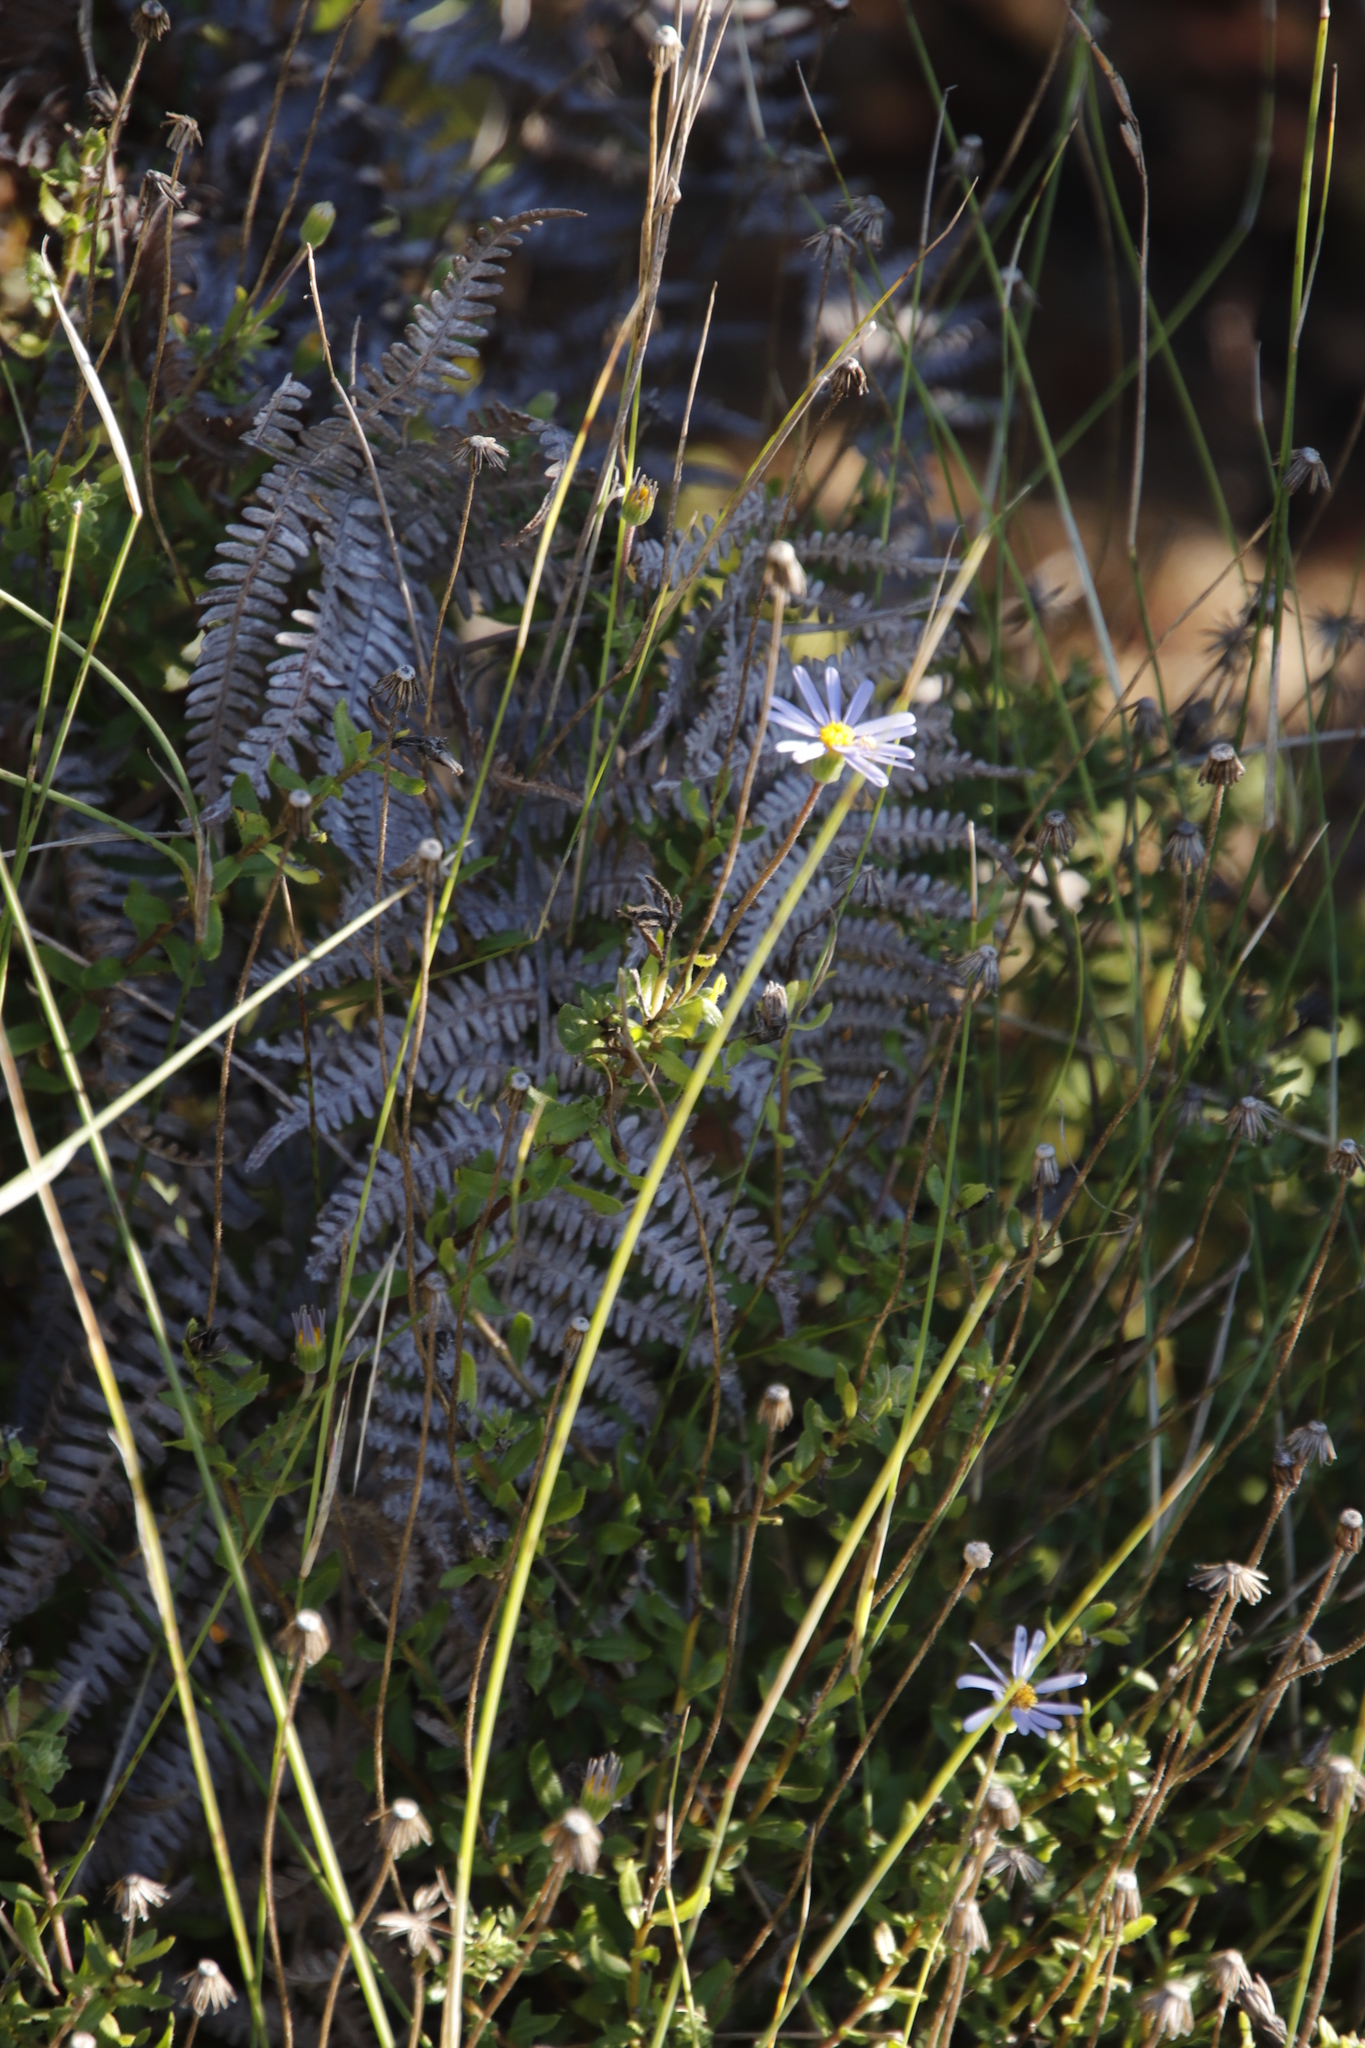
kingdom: Plantae
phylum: Tracheophyta
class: Magnoliopsida
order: Asterales
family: Asteraceae
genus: Felicia
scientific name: Felicia aethiopica
